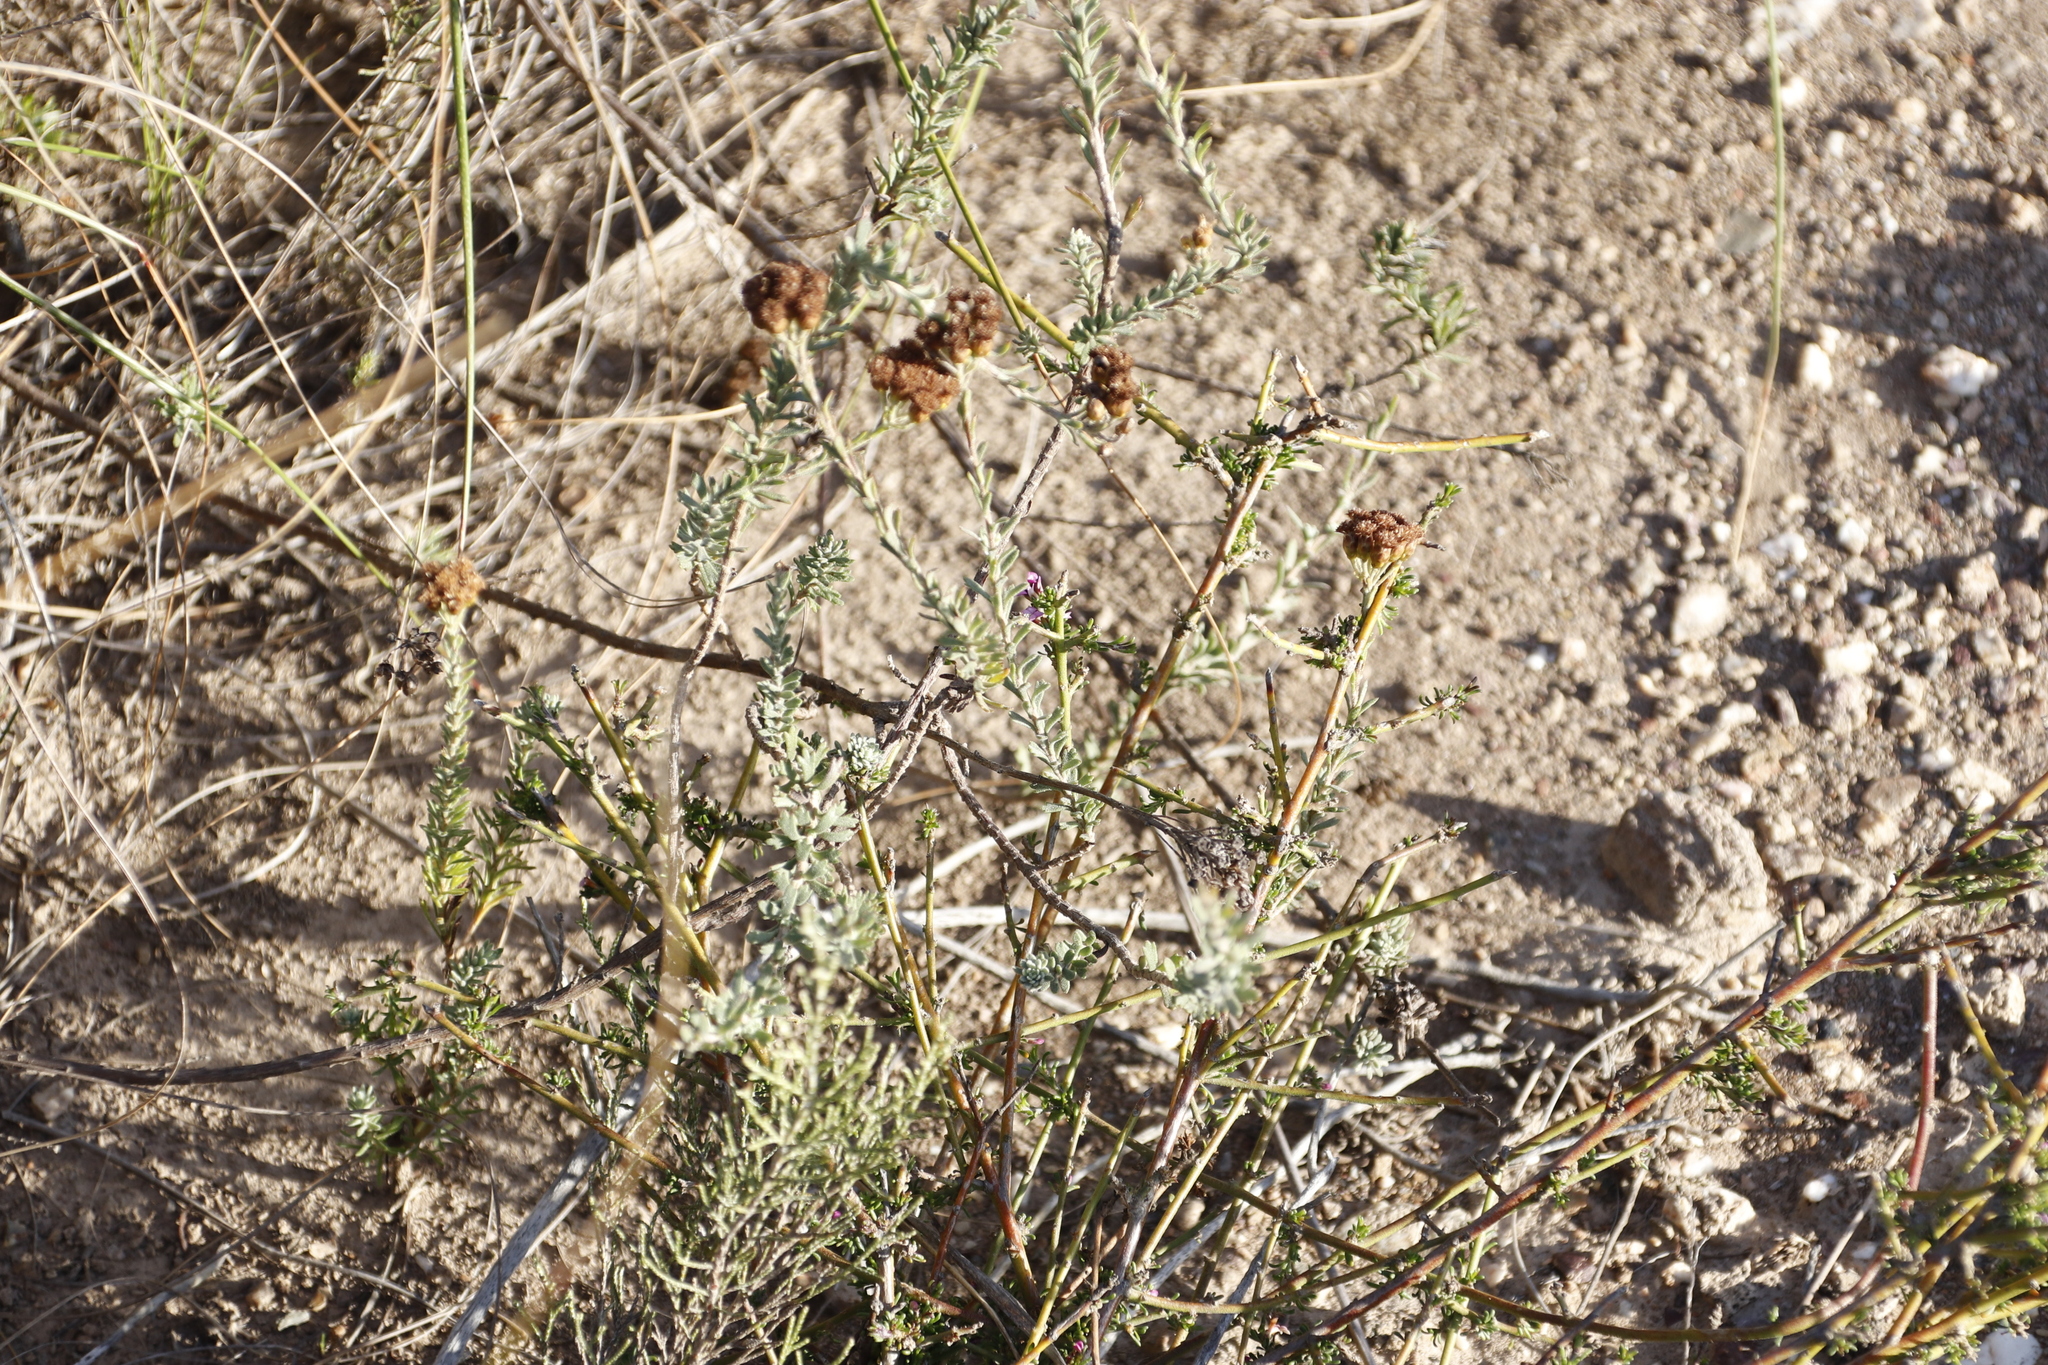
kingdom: Plantae
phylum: Tracheophyta
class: Magnoliopsida
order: Asterales
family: Asteraceae
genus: Athanasia
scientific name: Athanasia trifurcata
